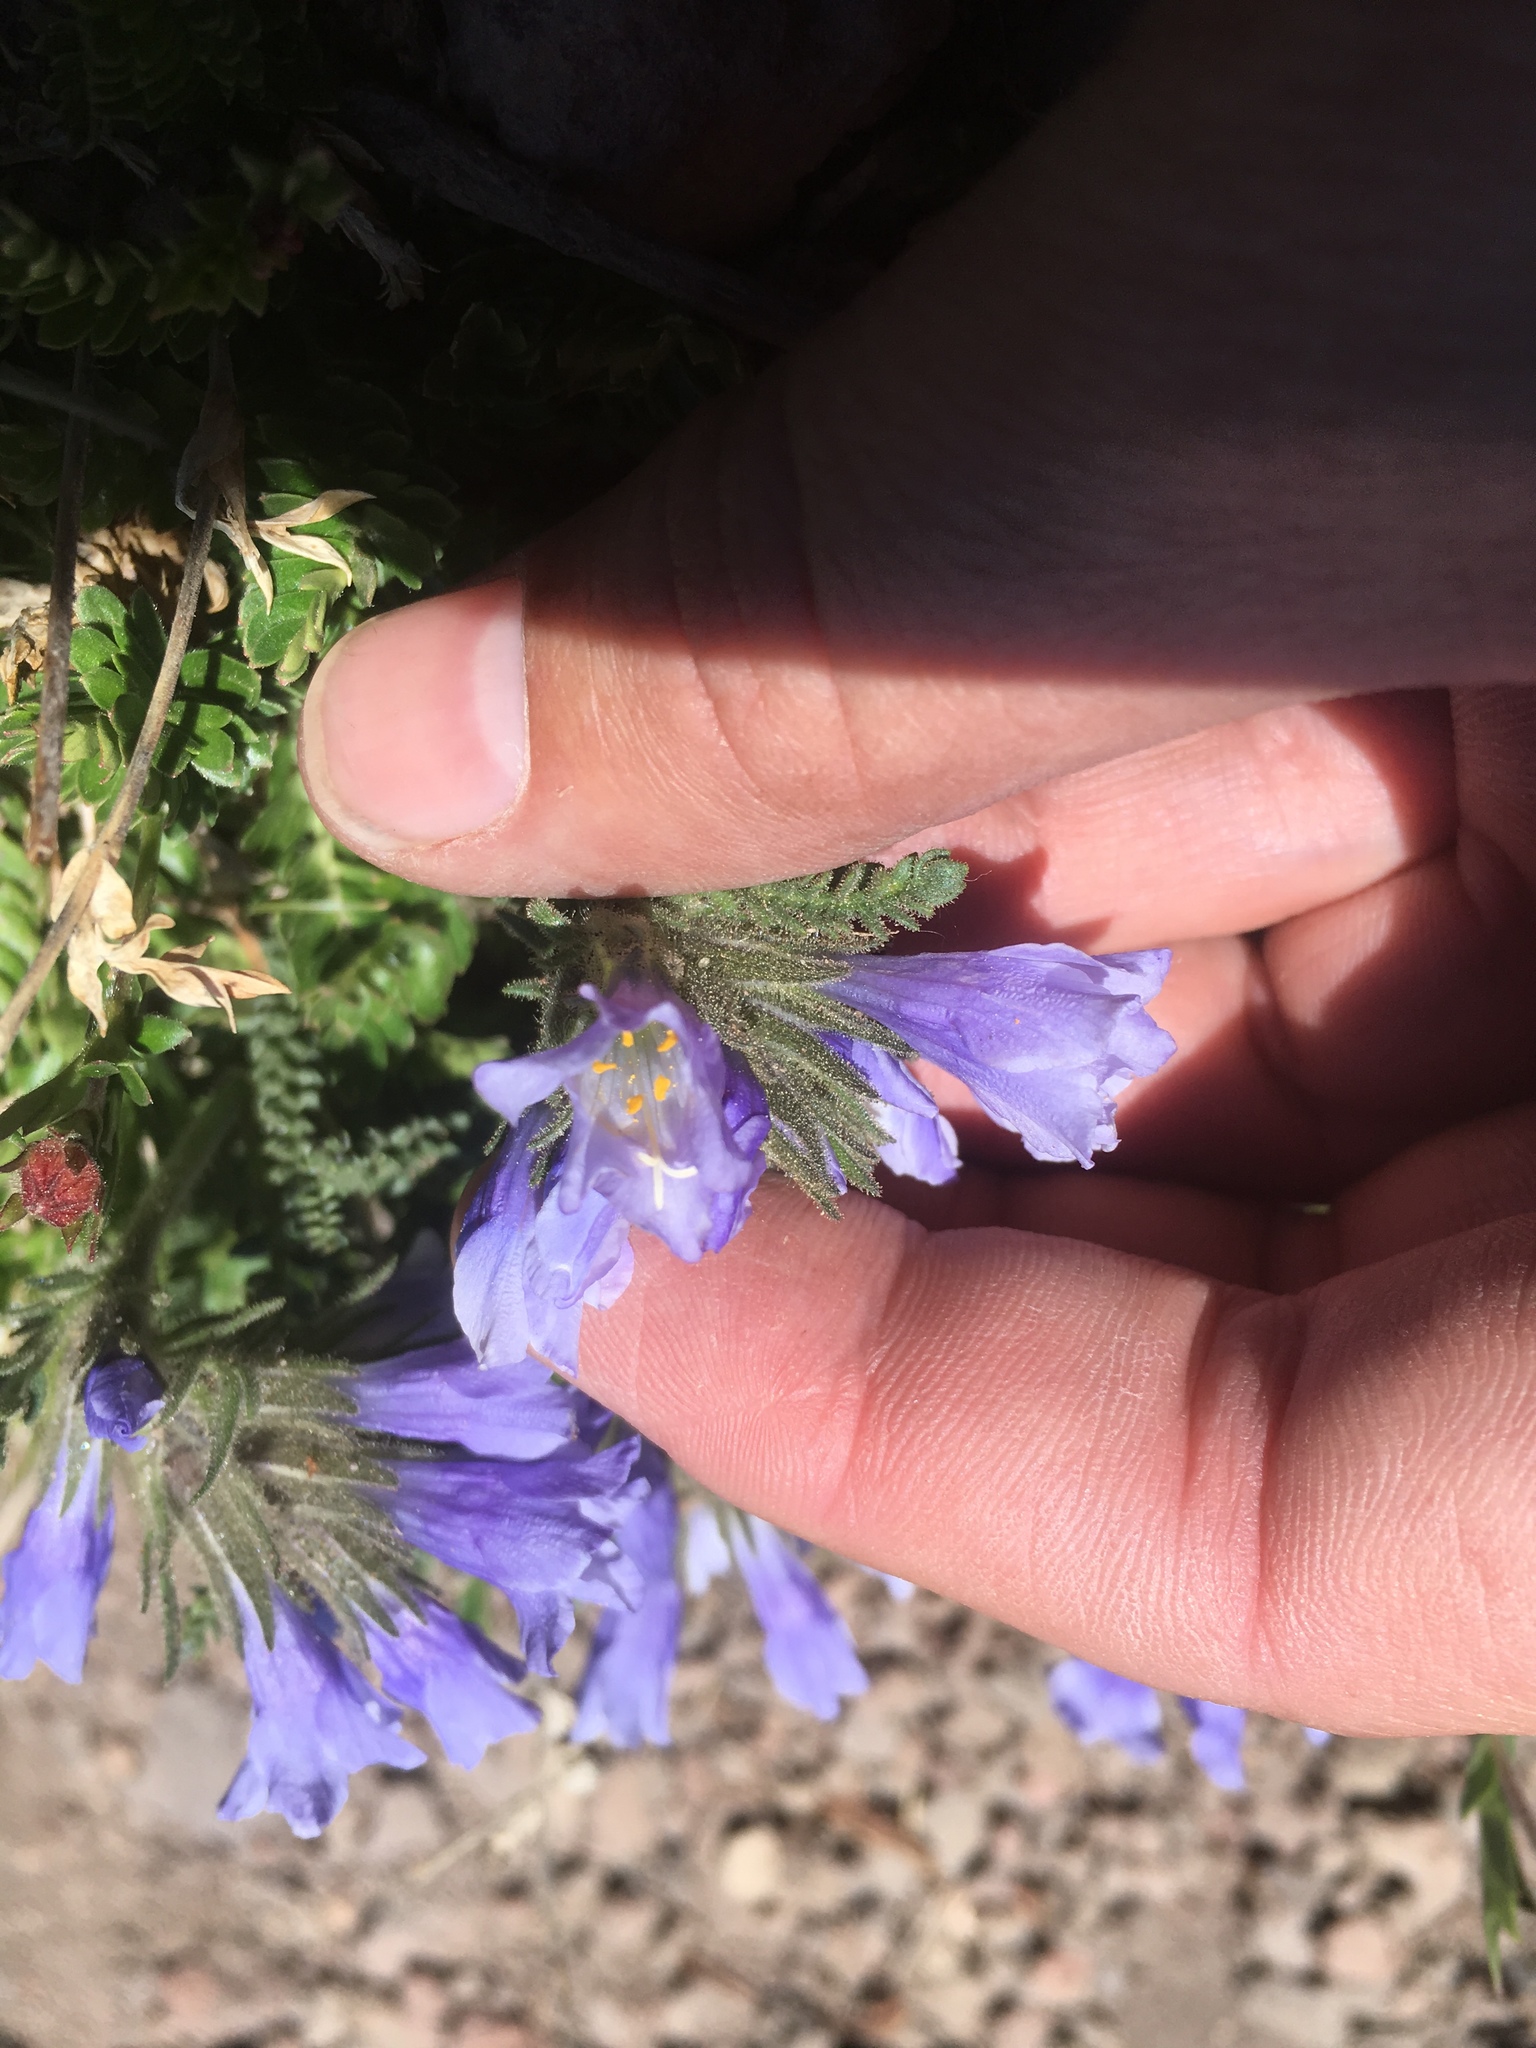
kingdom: Plantae
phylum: Tracheophyta
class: Magnoliopsida
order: Ericales
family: Polemoniaceae
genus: Polemonium
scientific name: Polemonium viscosum
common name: Skunk jacob's-ladder
